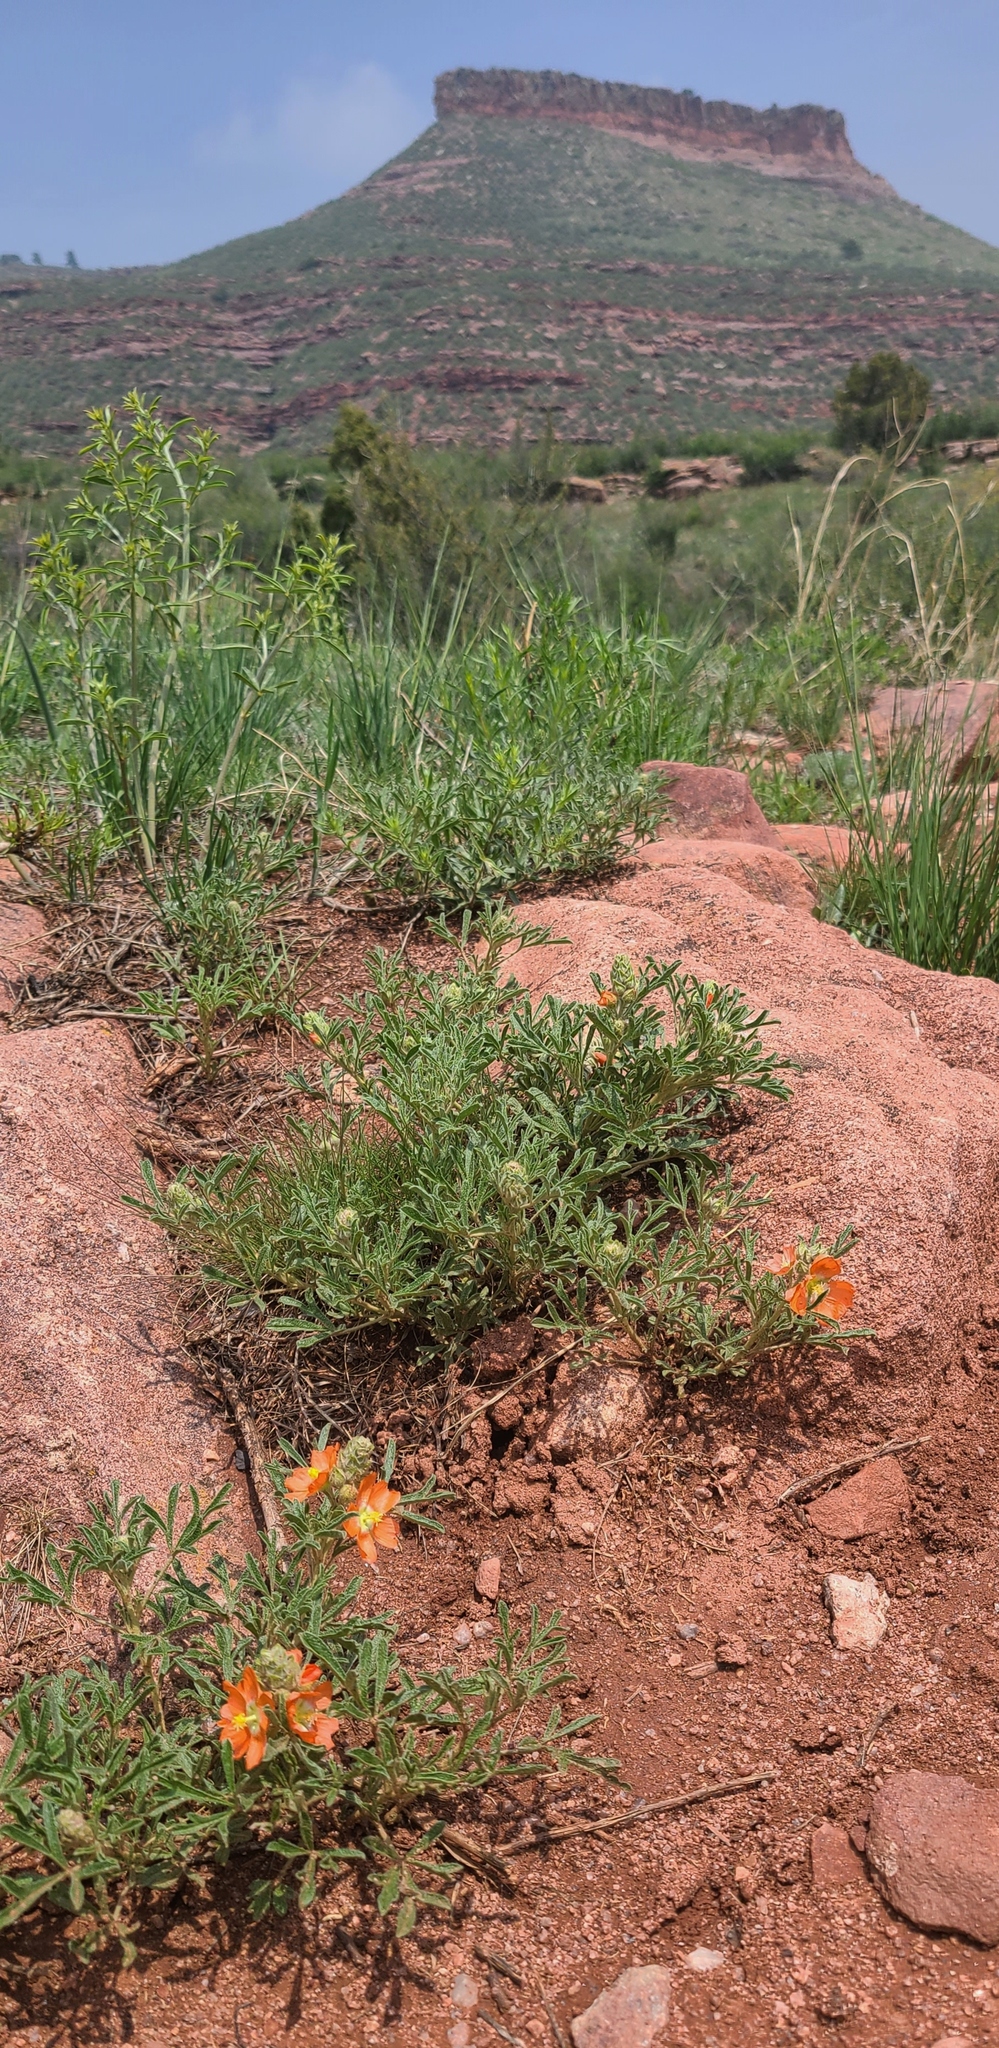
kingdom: Plantae
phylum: Tracheophyta
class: Magnoliopsida
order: Malvales
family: Malvaceae
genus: Sphaeralcea
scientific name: Sphaeralcea coccinea
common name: Moss-rose
